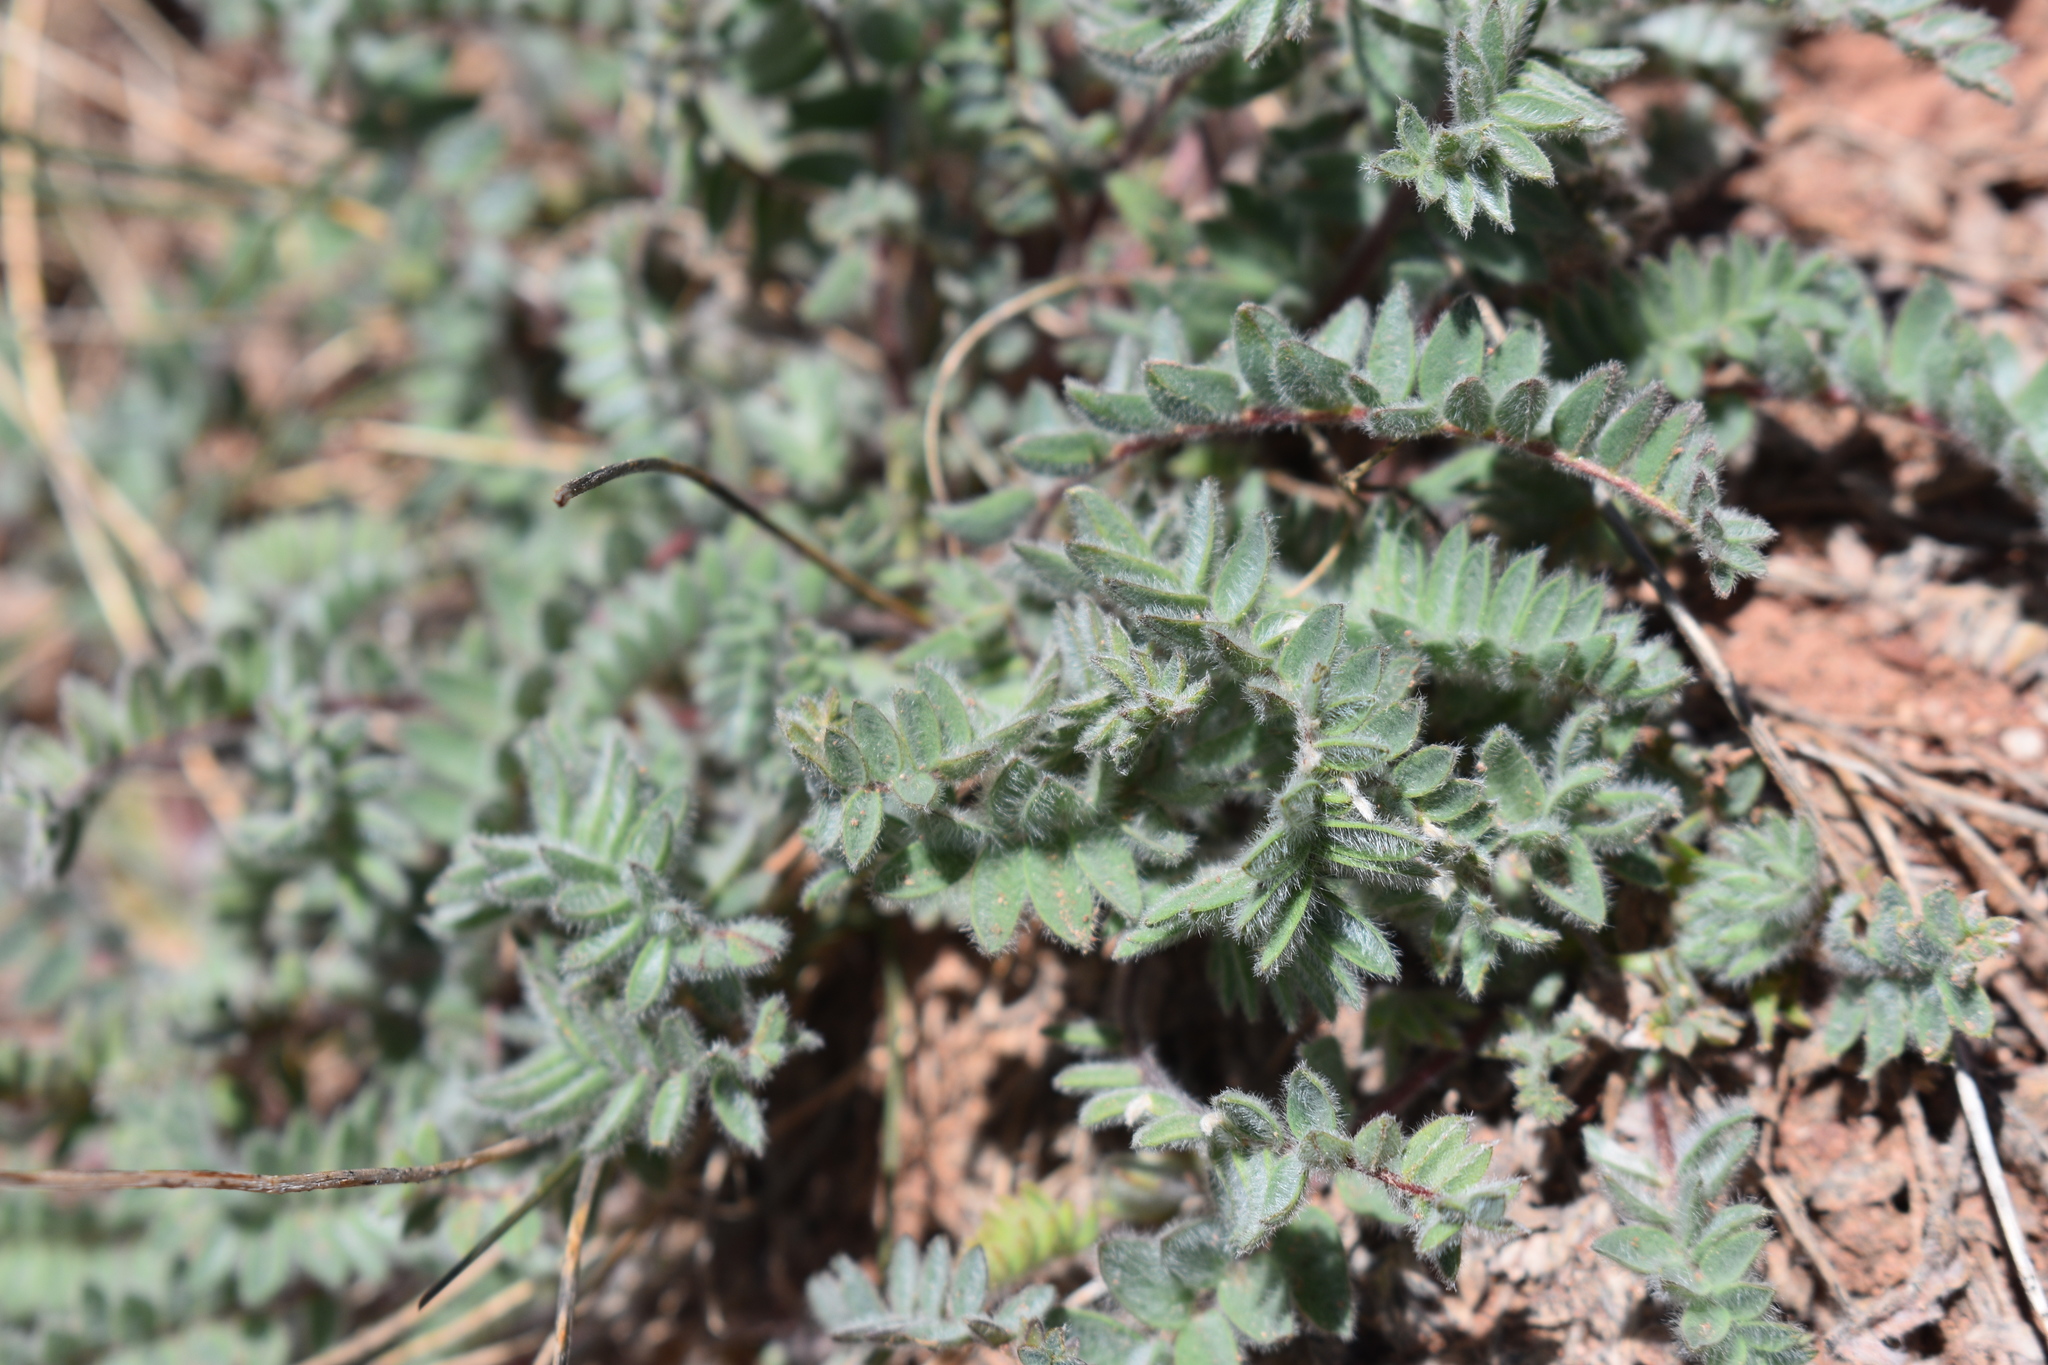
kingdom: Plantae
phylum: Tracheophyta
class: Magnoliopsida
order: Fabales
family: Fabaceae
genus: Oxytropis
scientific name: Oxytropis deflexa
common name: Stemmed oxytrope
